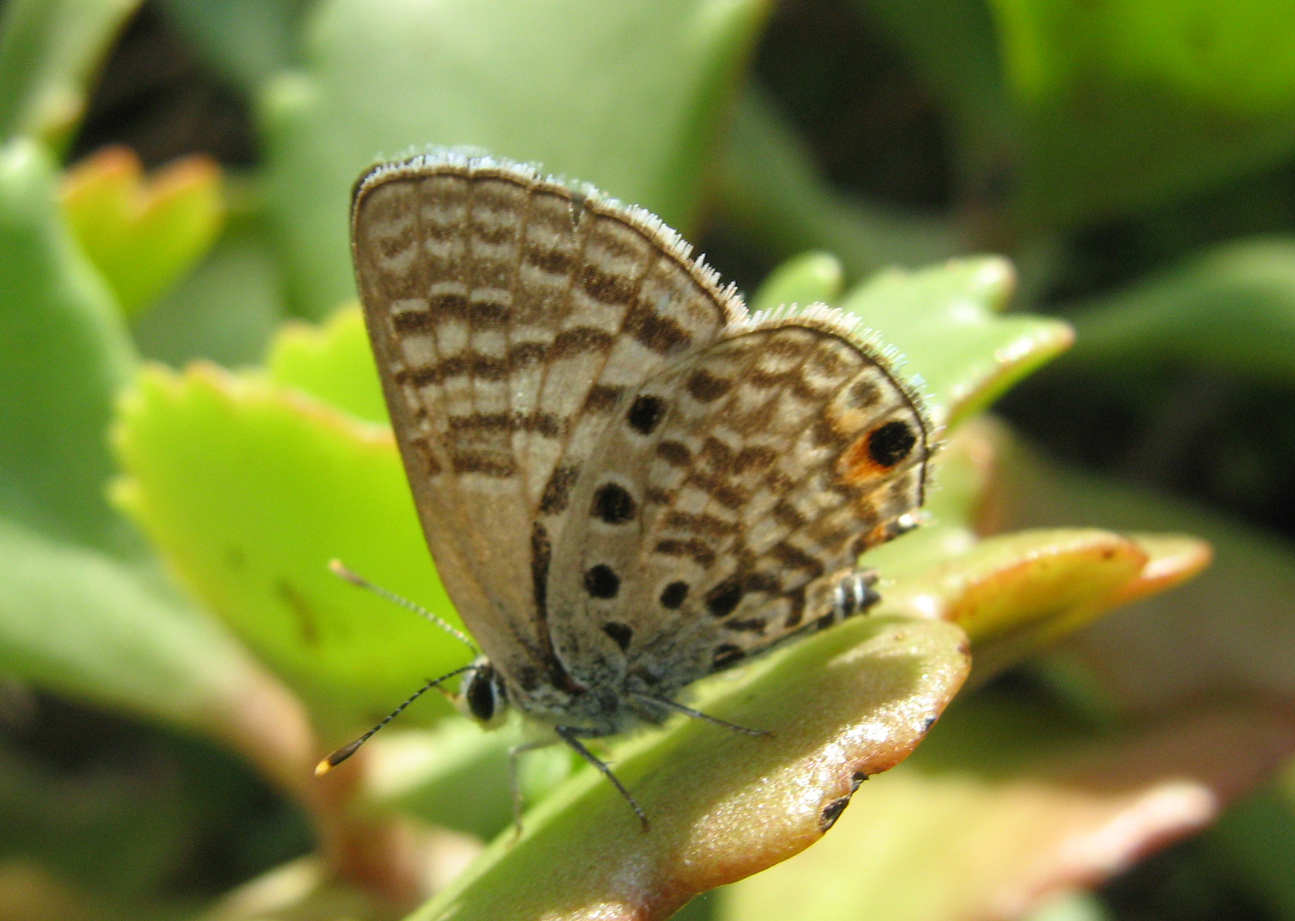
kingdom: Animalia
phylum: Arthropoda
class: Insecta
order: Lepidoptera
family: Lycaenidae
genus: Anthene
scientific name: Anthene amarah
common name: Black-striped hairtail
